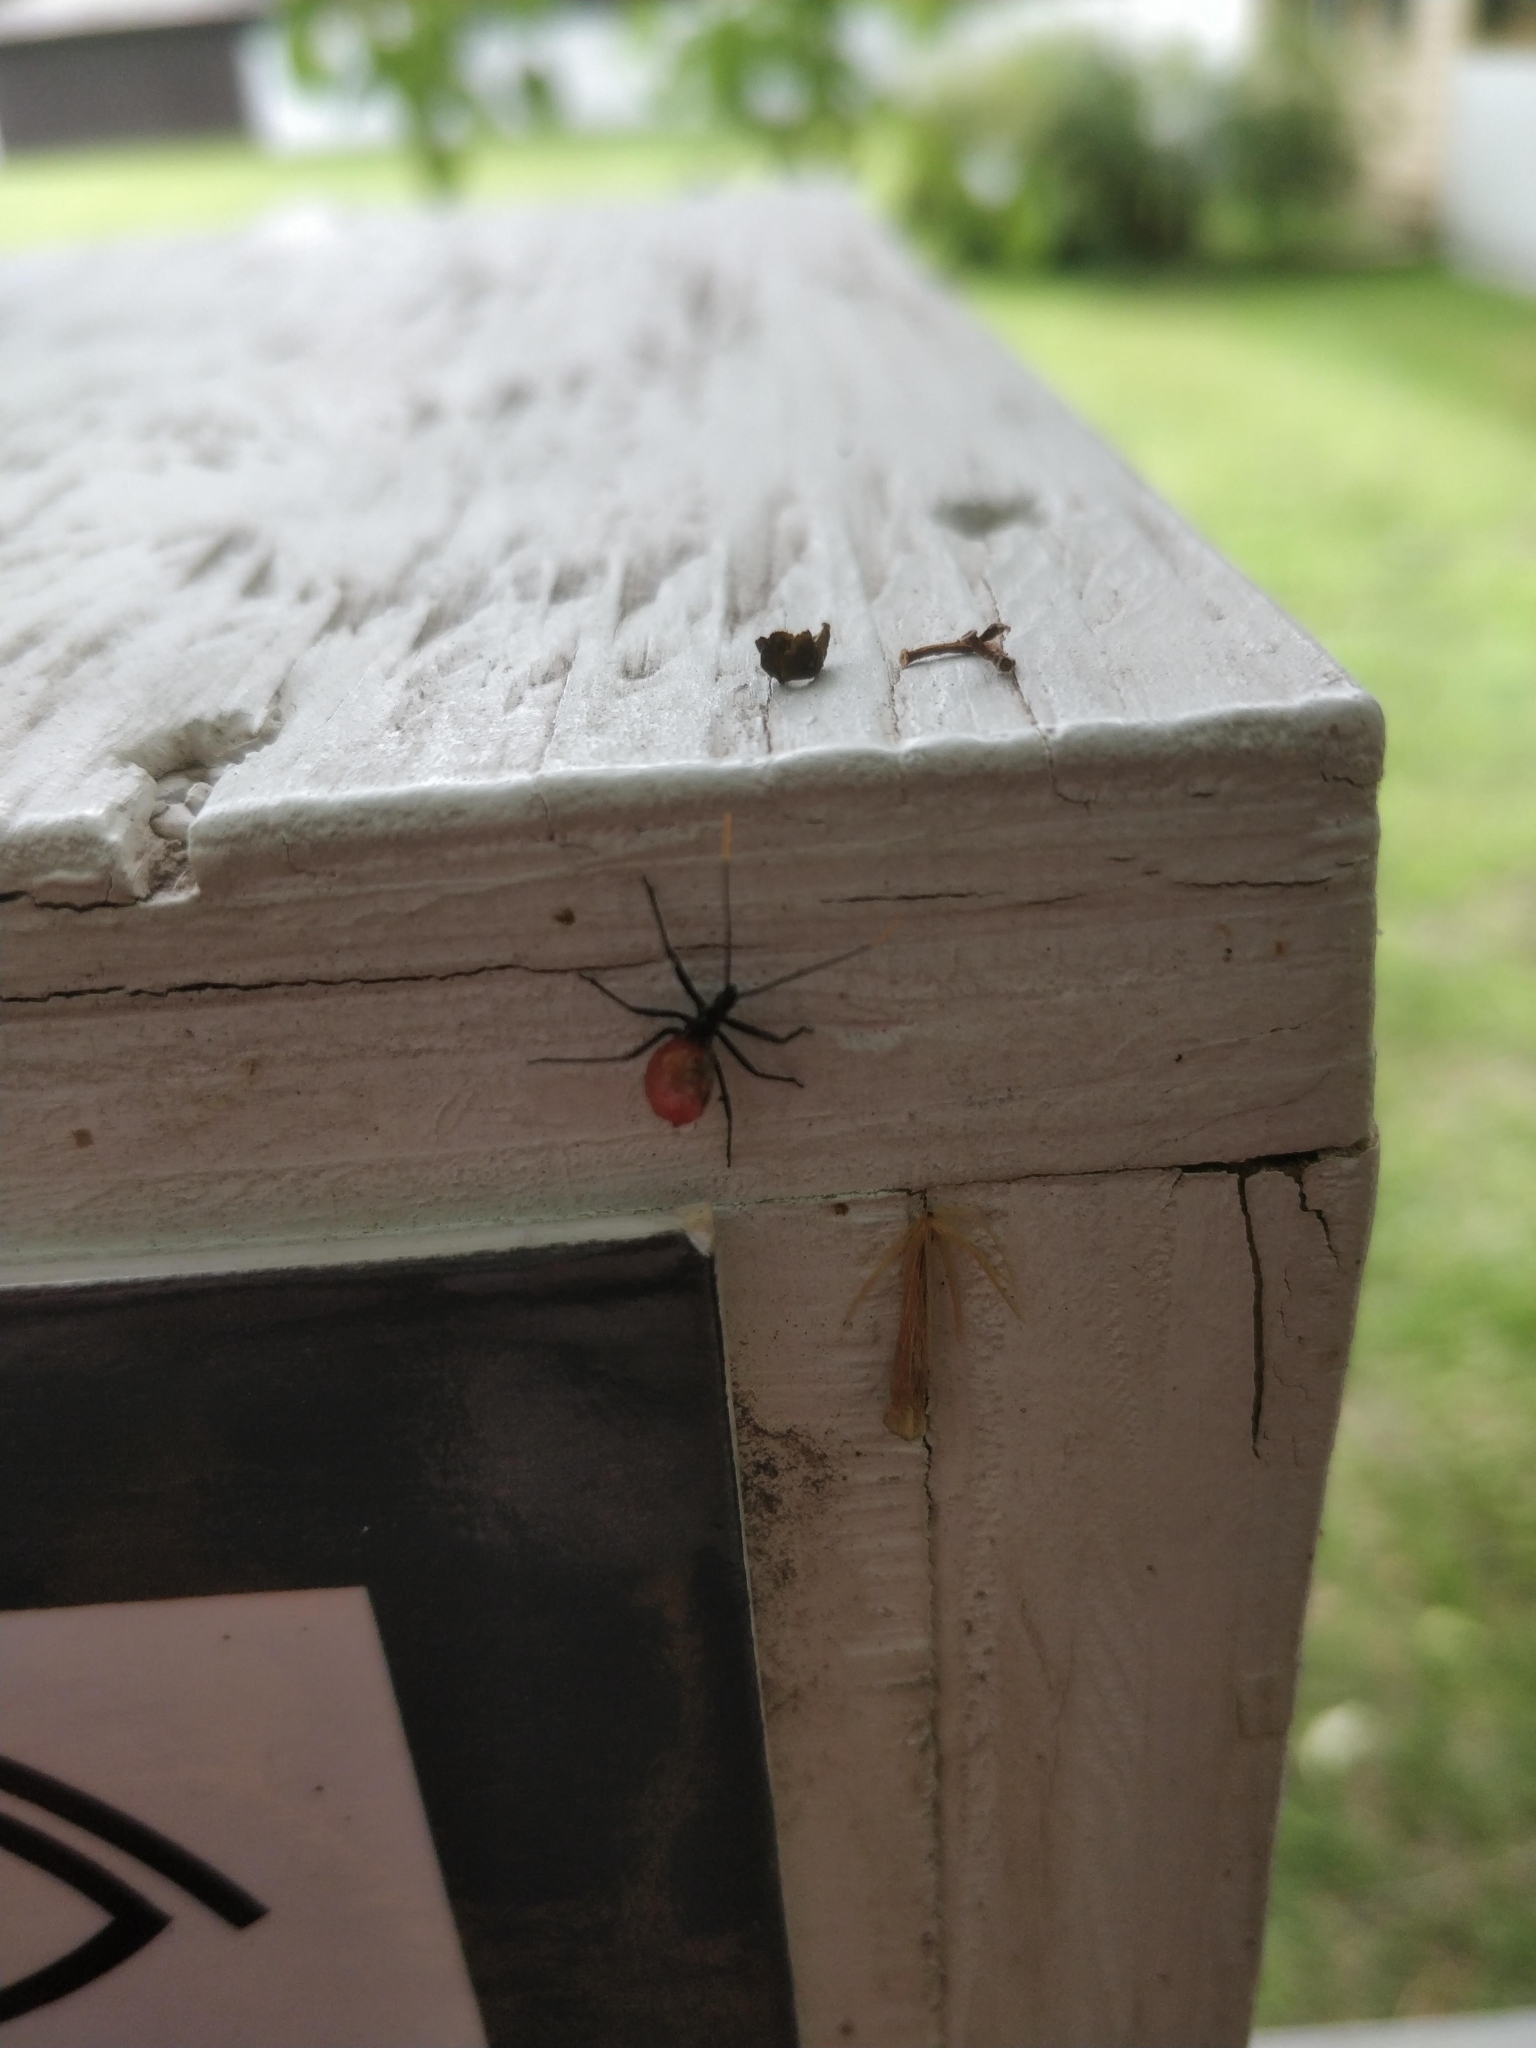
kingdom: Animalia
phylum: Arthropoda
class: Insecta
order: Hemiptera
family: Reduviidae
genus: Arilus
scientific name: Arilus cristatus
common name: North american wheel bug
